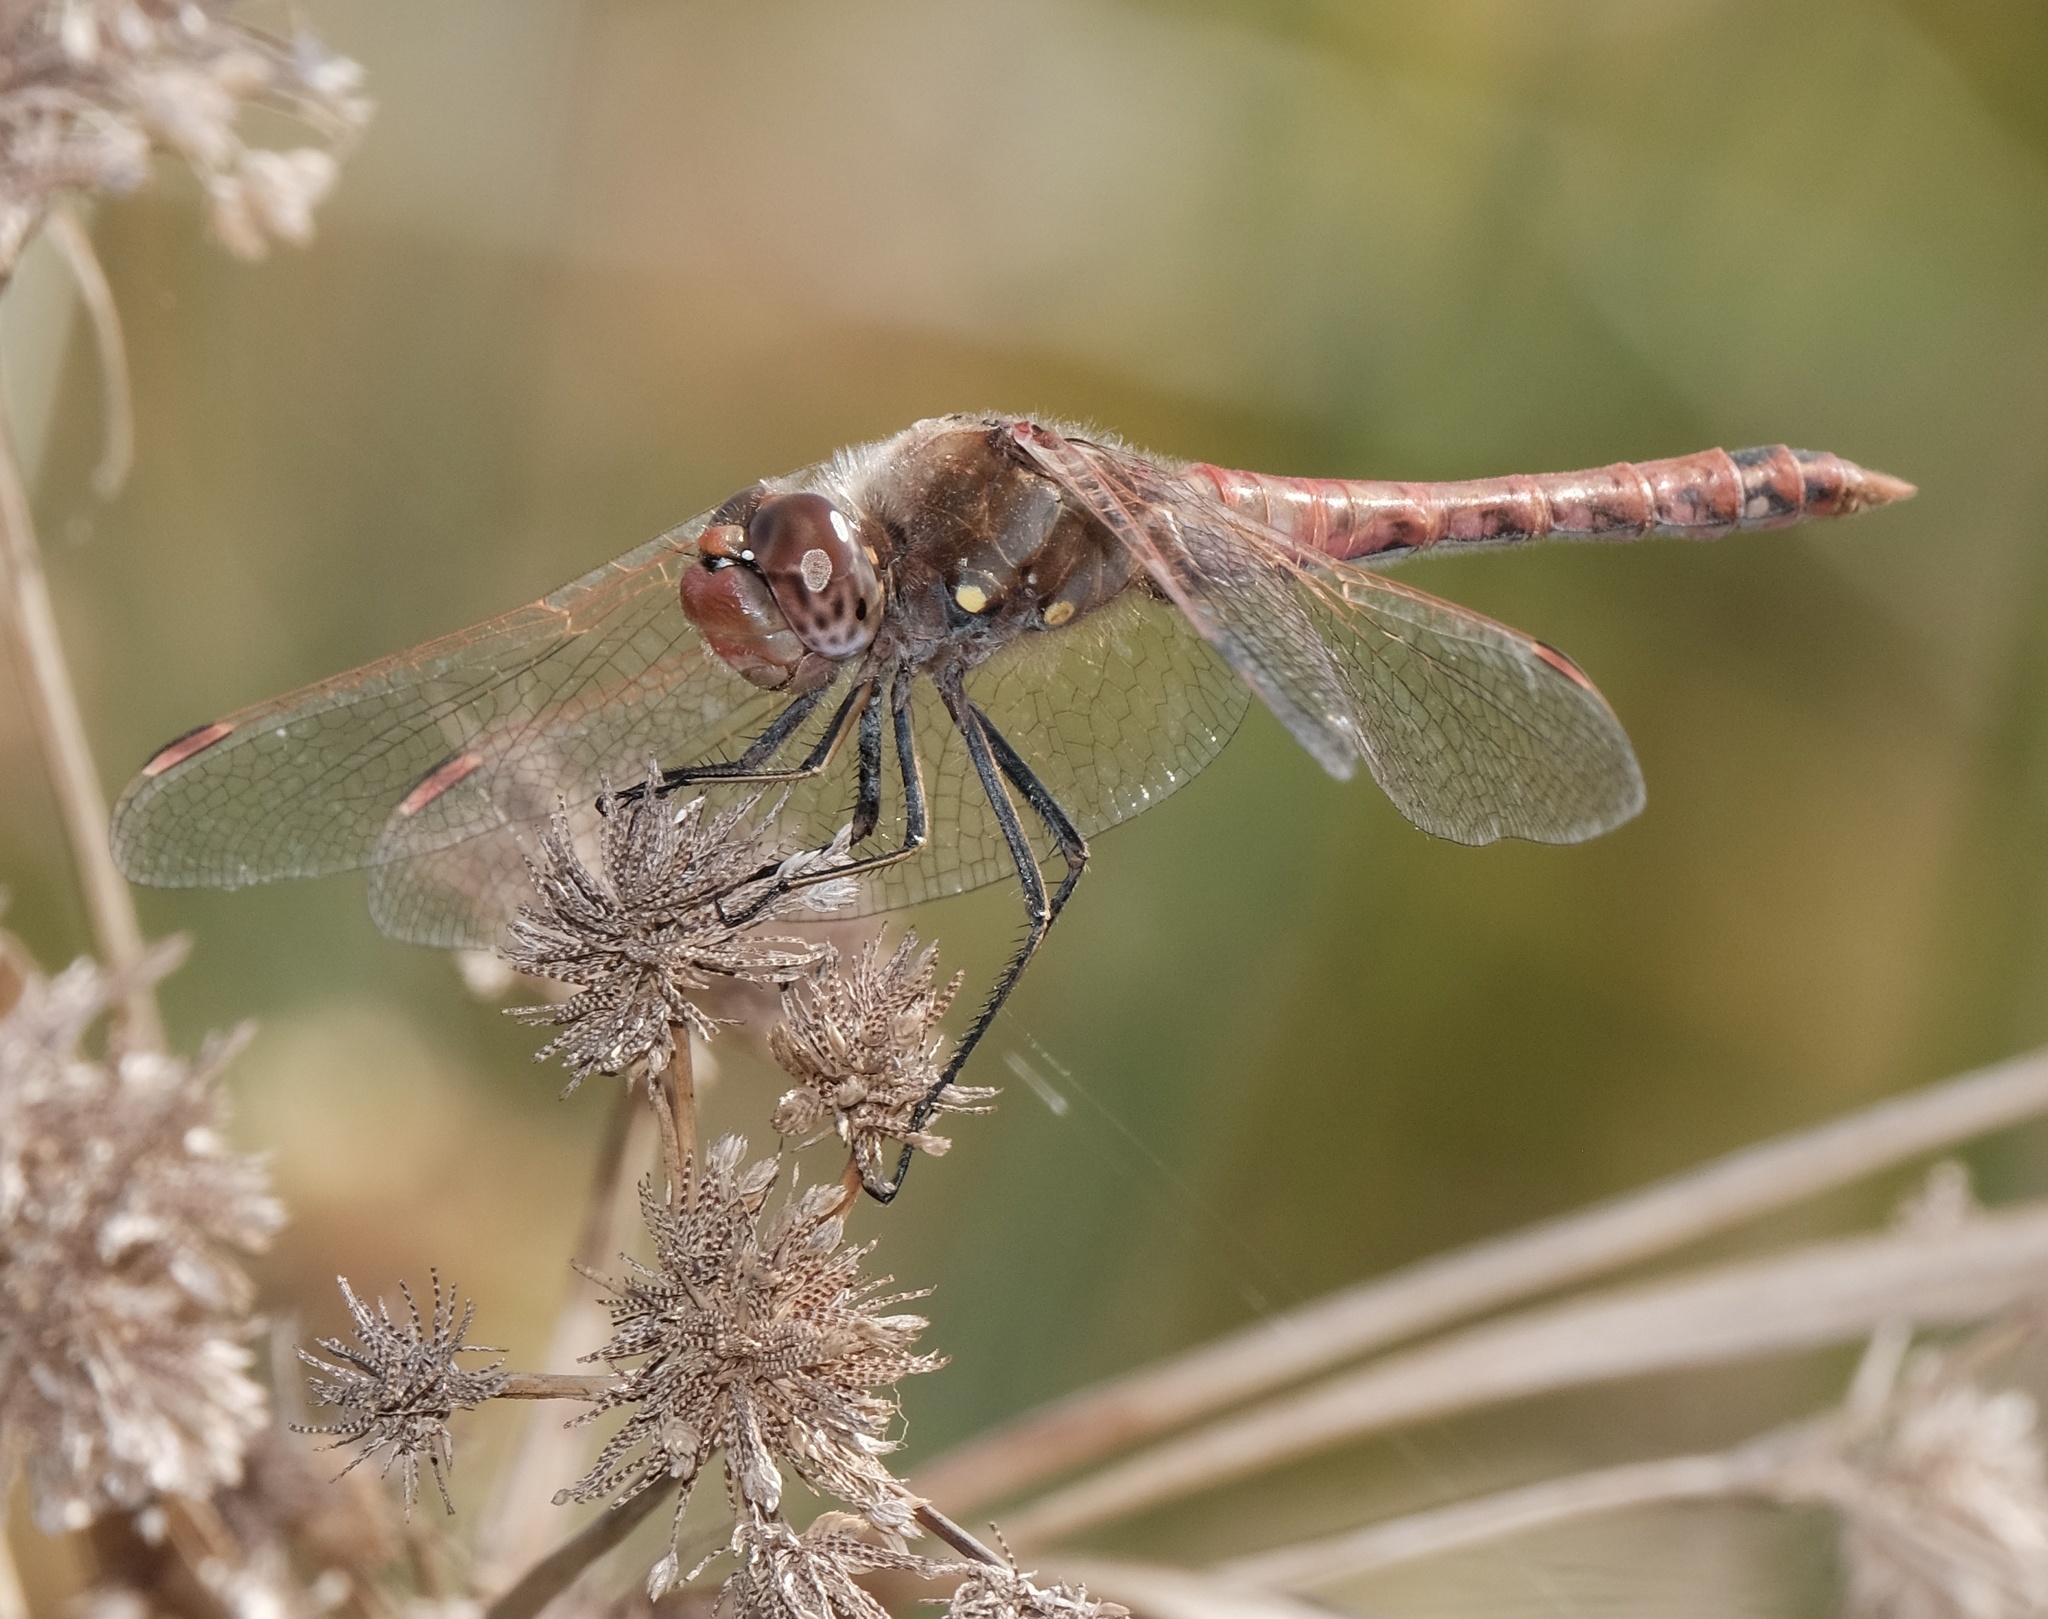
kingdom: Animalia
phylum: Arthropoda
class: Insecta
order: Odonata
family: Libellulidae
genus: Sympetrum
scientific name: Sympetrum corruptum
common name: Variegated meadowhawk
